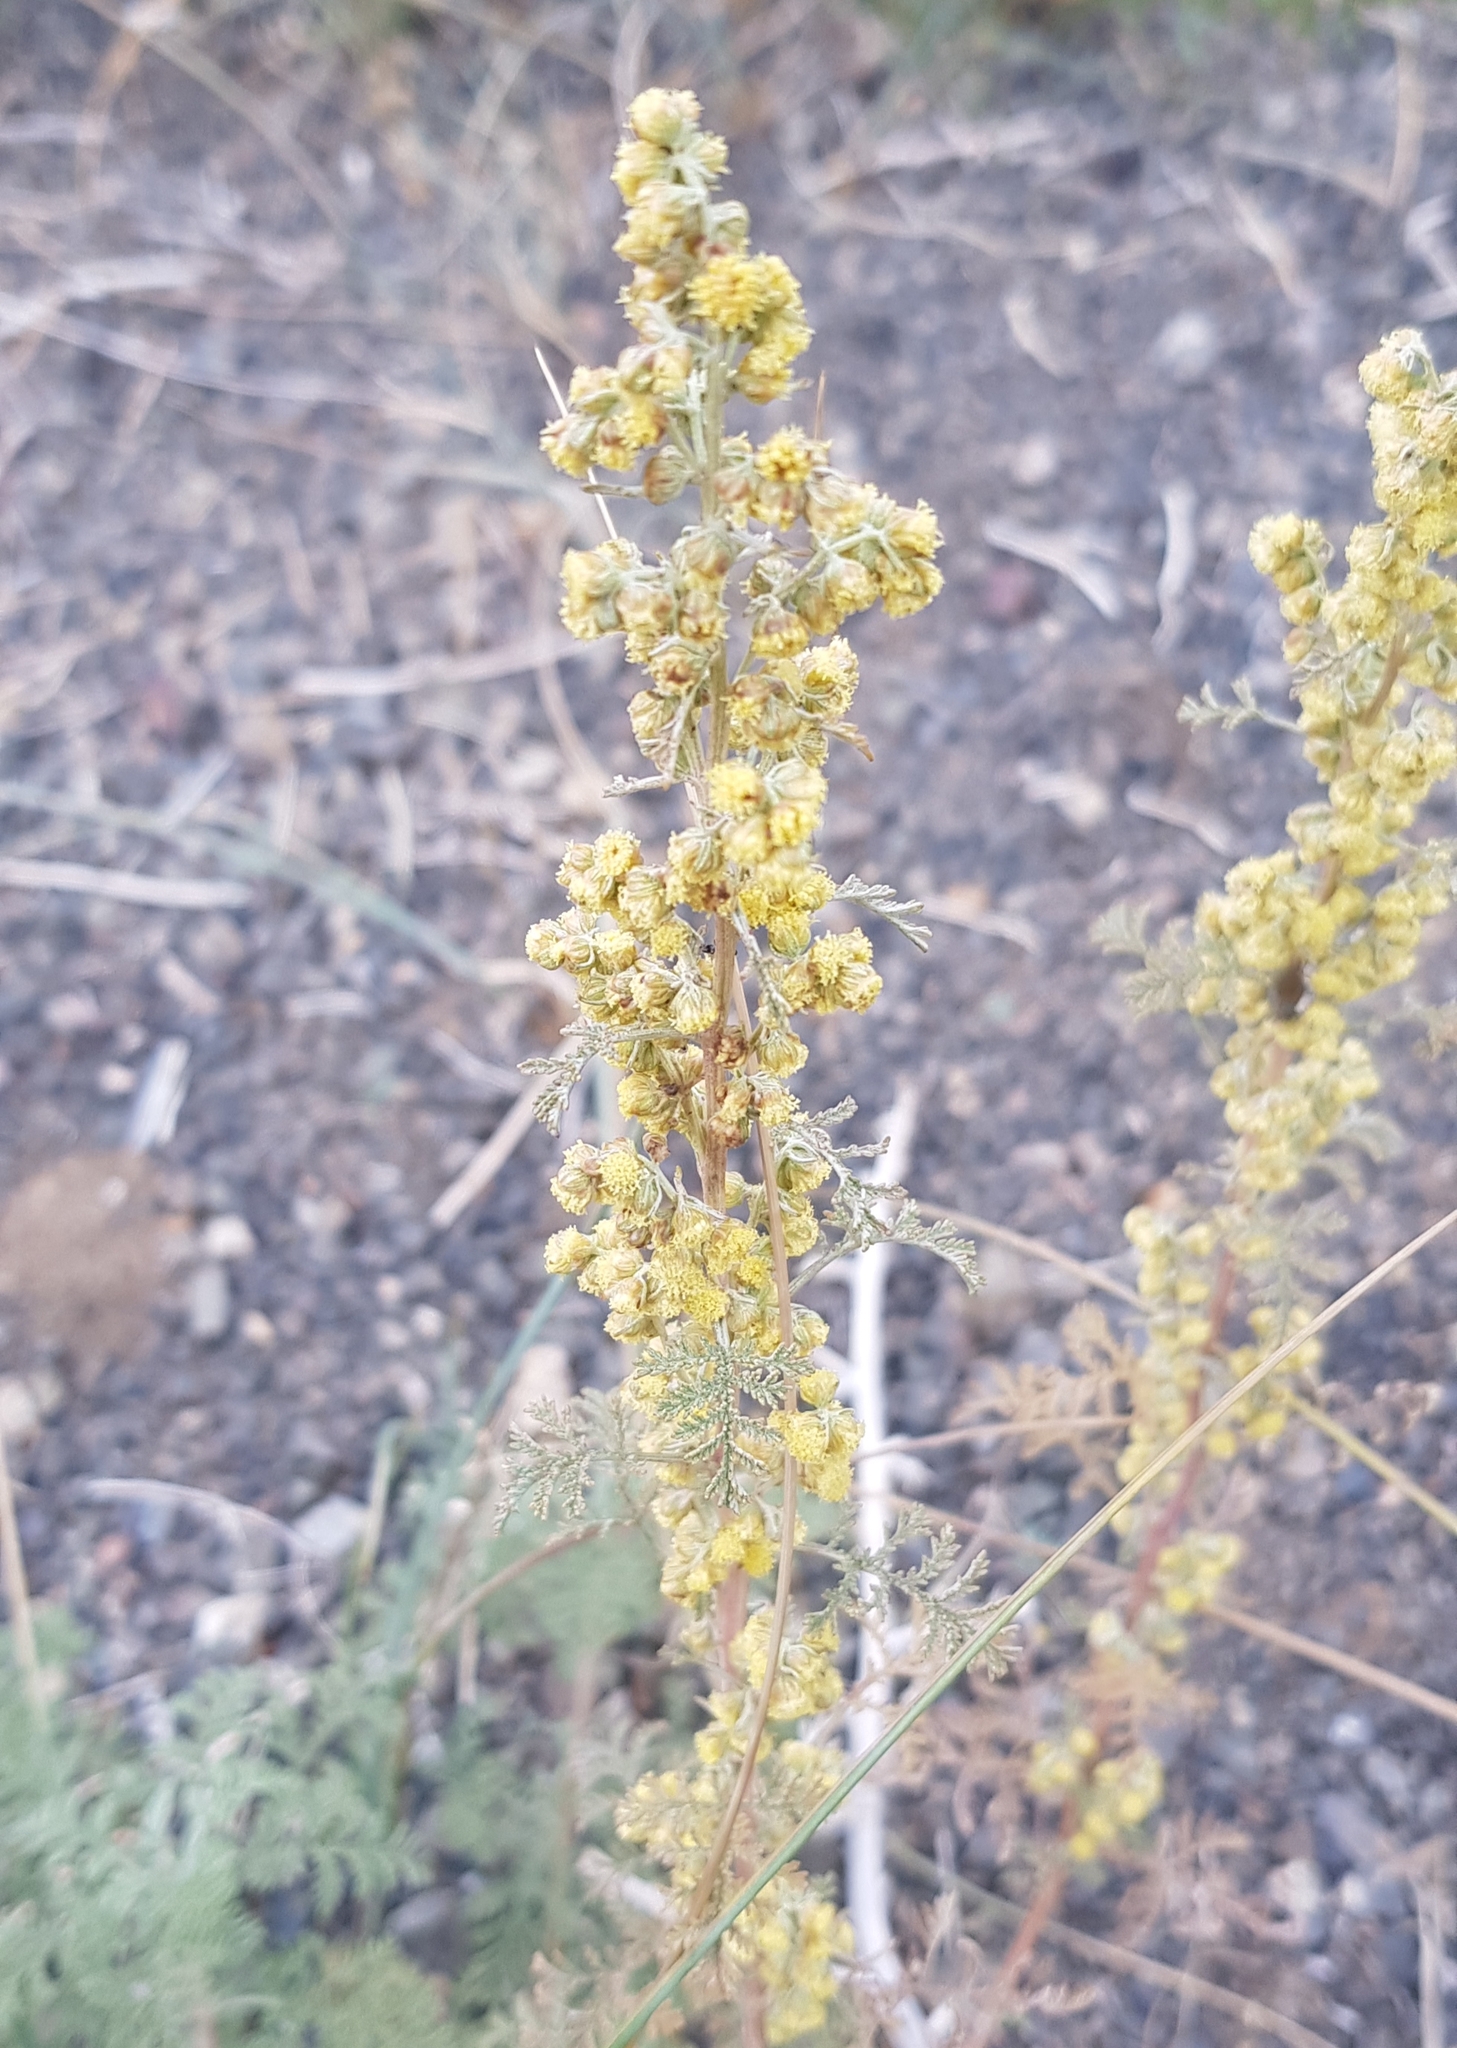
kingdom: Plantae
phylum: Tracheophyta
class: Magnoliopsida
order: Asterales
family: Asteraceae
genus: Artemisia
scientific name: Artemisia
